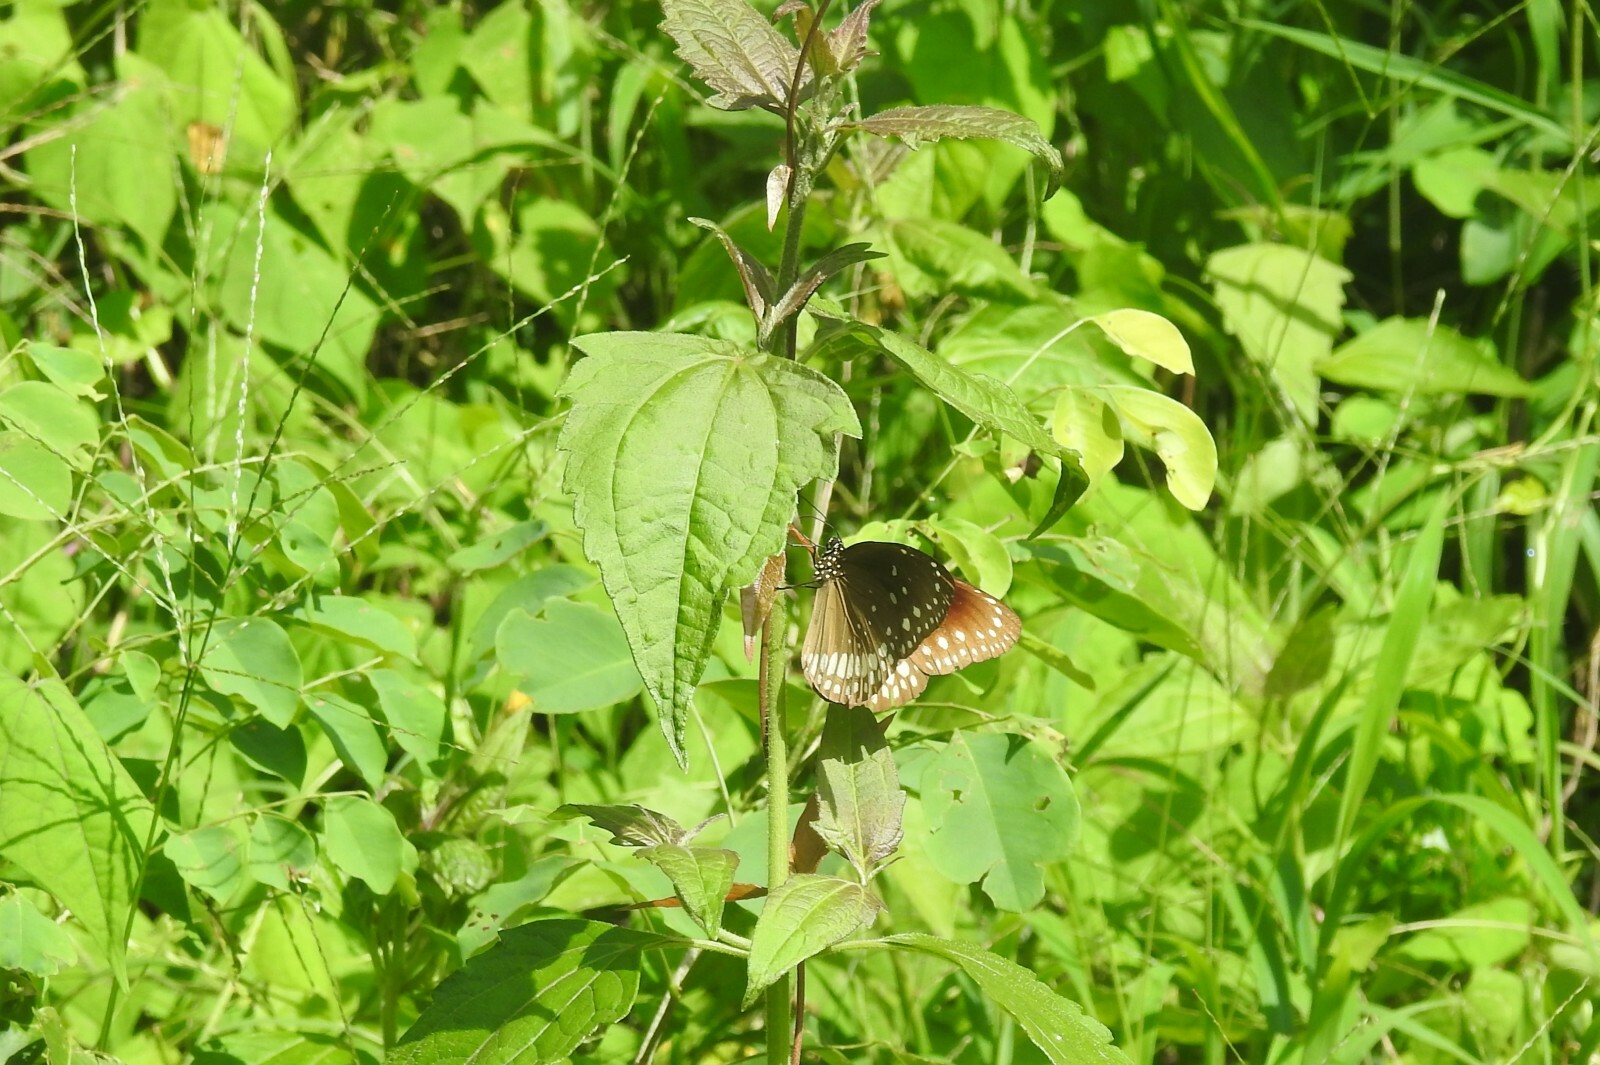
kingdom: Animalia
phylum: Arthropoda
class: Insecta
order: Lepidoptera
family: Nymphalidae
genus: Euploea
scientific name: Euploea core
